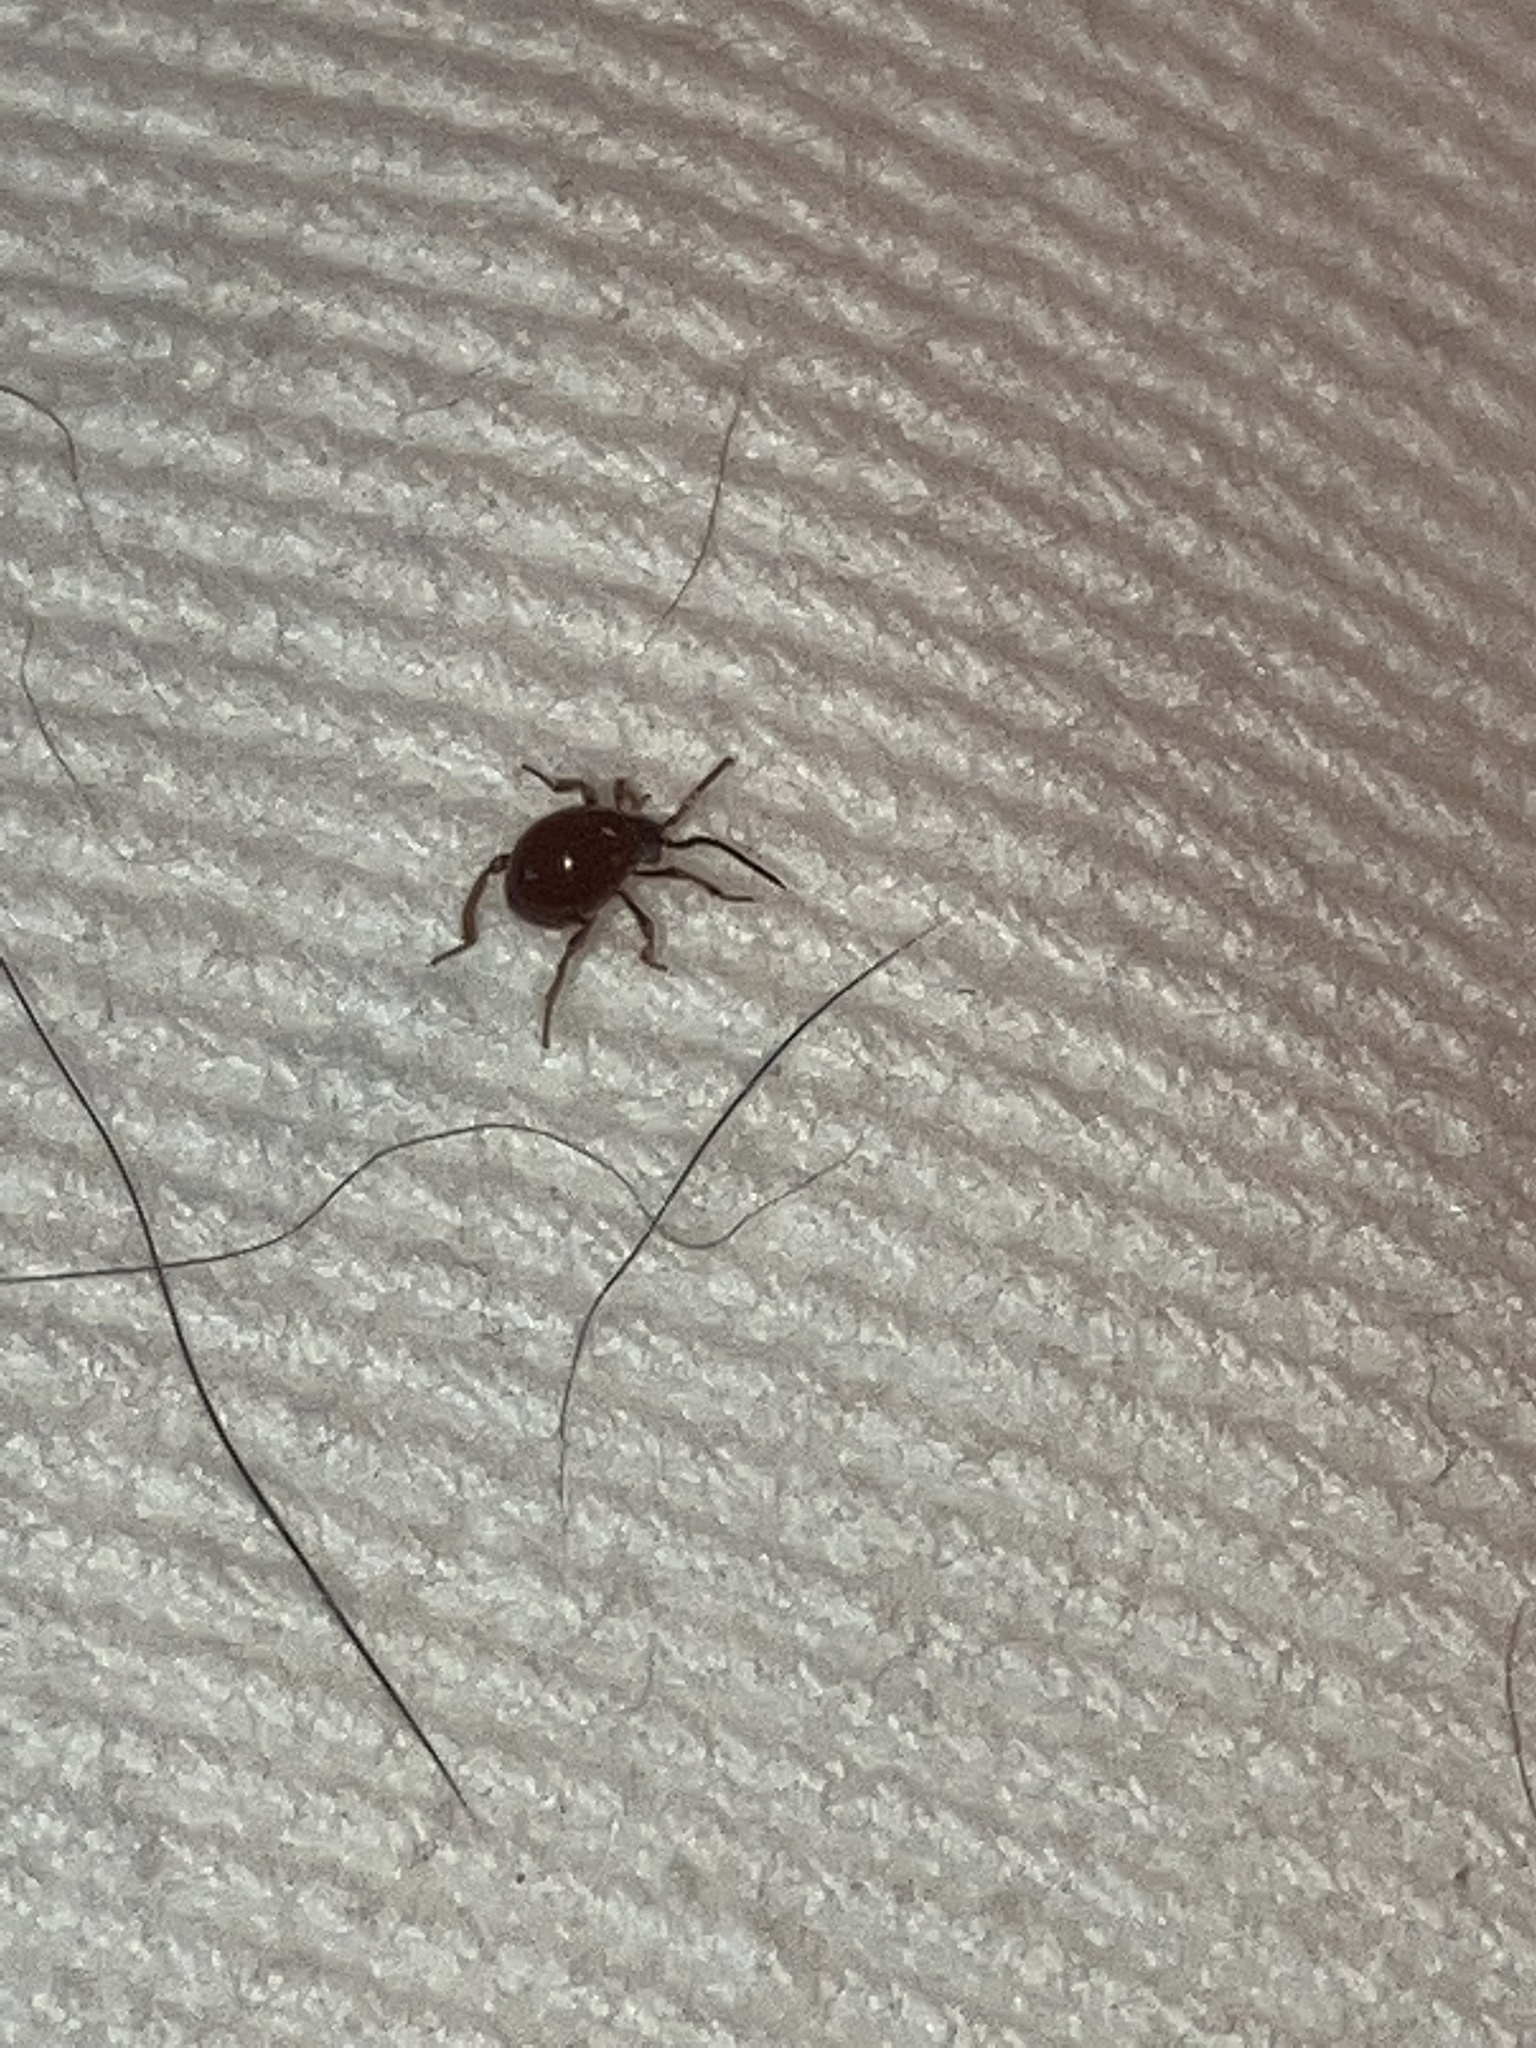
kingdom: Animalia
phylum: Arthropoda
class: Insecta
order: Coleoptera
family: Ptinidae
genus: Gibbium
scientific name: Gibbium aequinoctiale
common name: Smooth spider beetle
